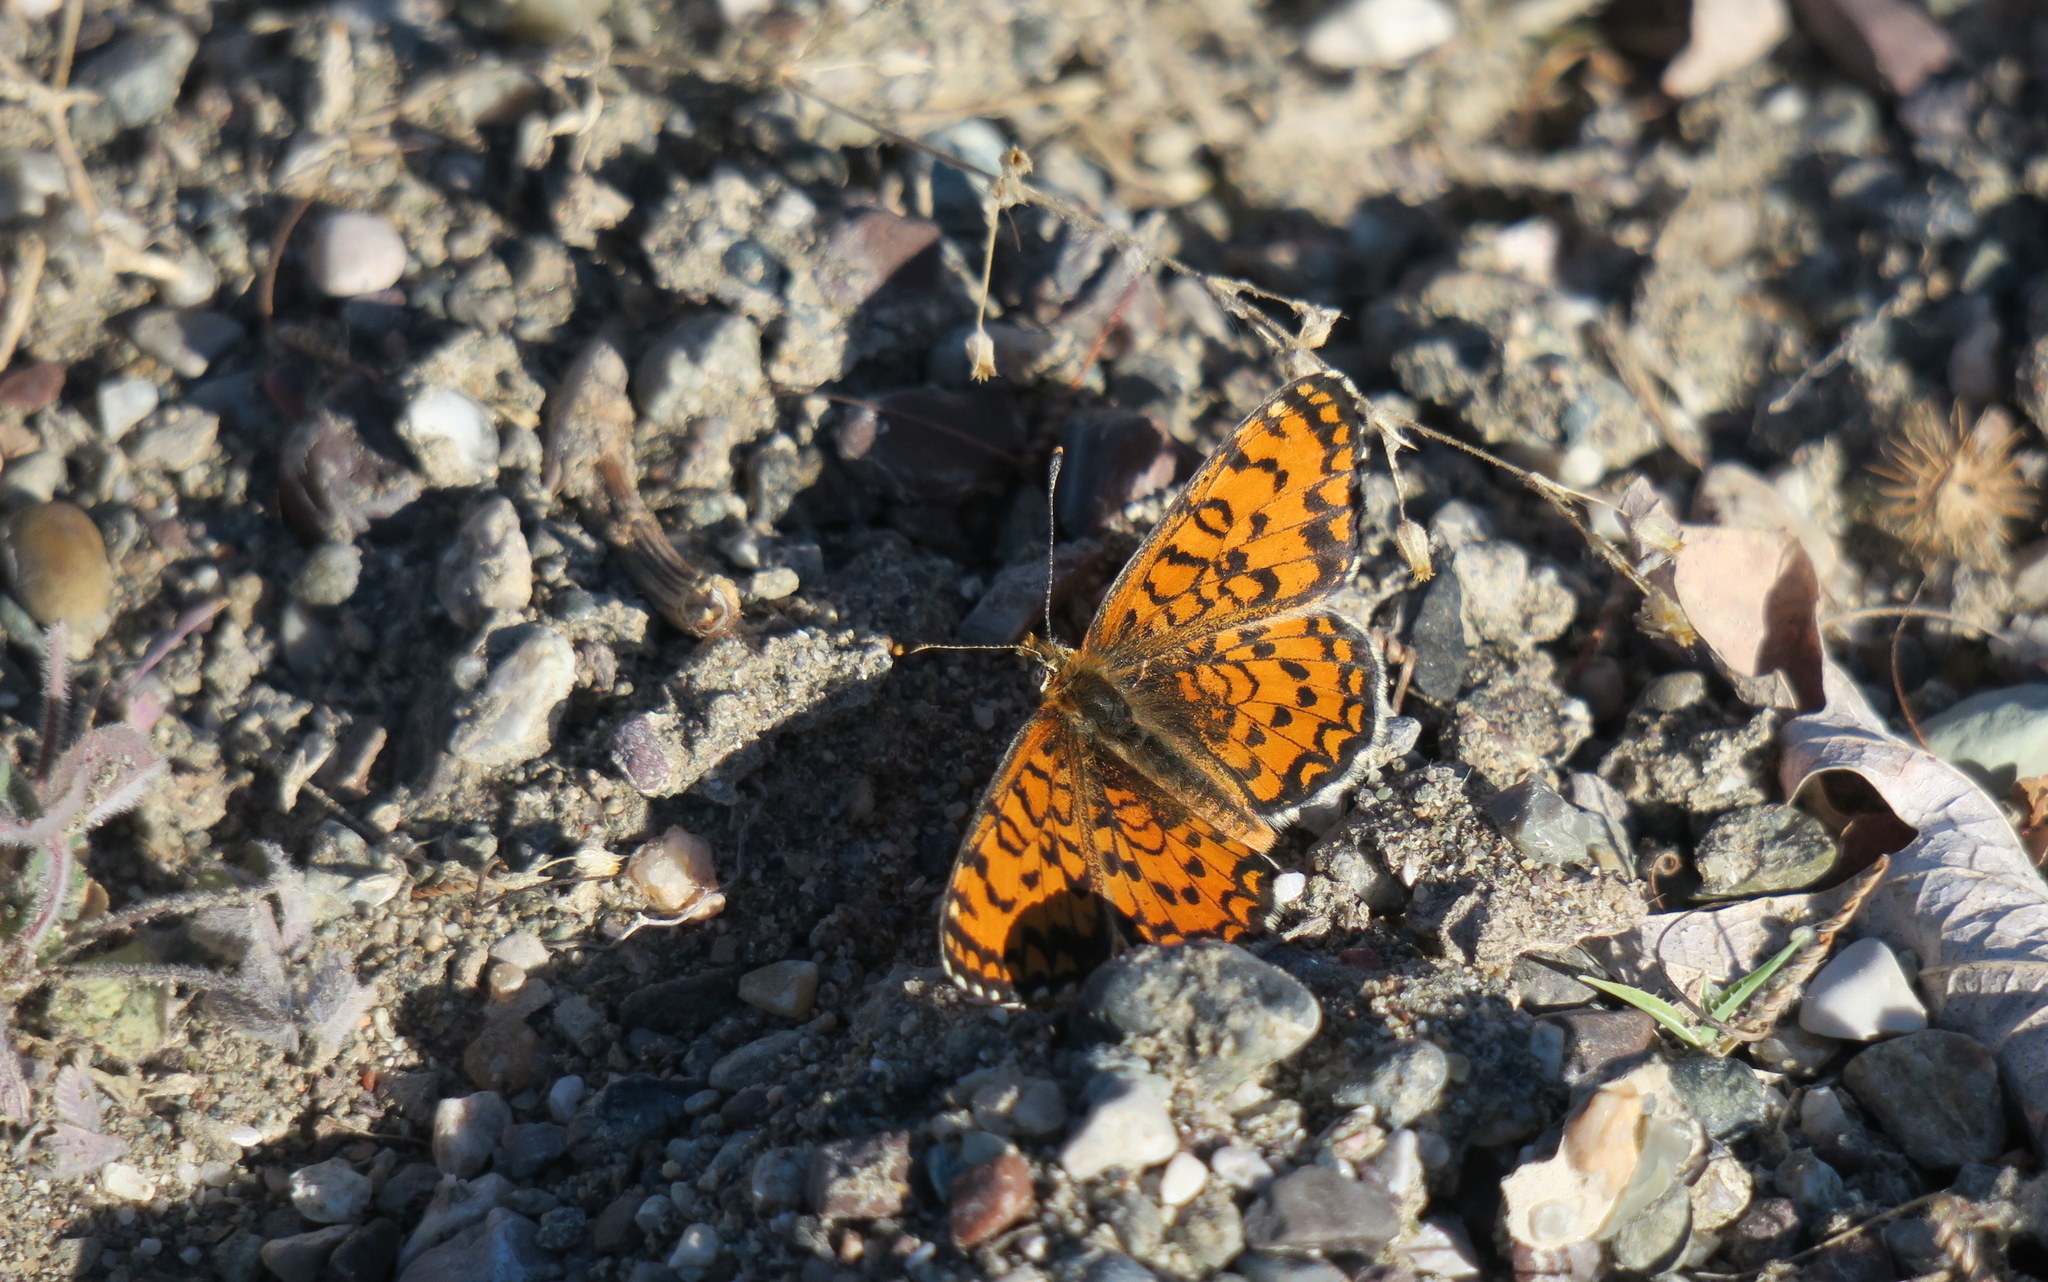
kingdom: Animalia
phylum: Arthropoda
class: Insecta
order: Lepidoptera
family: Nymphalidae
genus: Melitaea
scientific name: Melitaea trivia
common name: Lesser spotted fritillary
